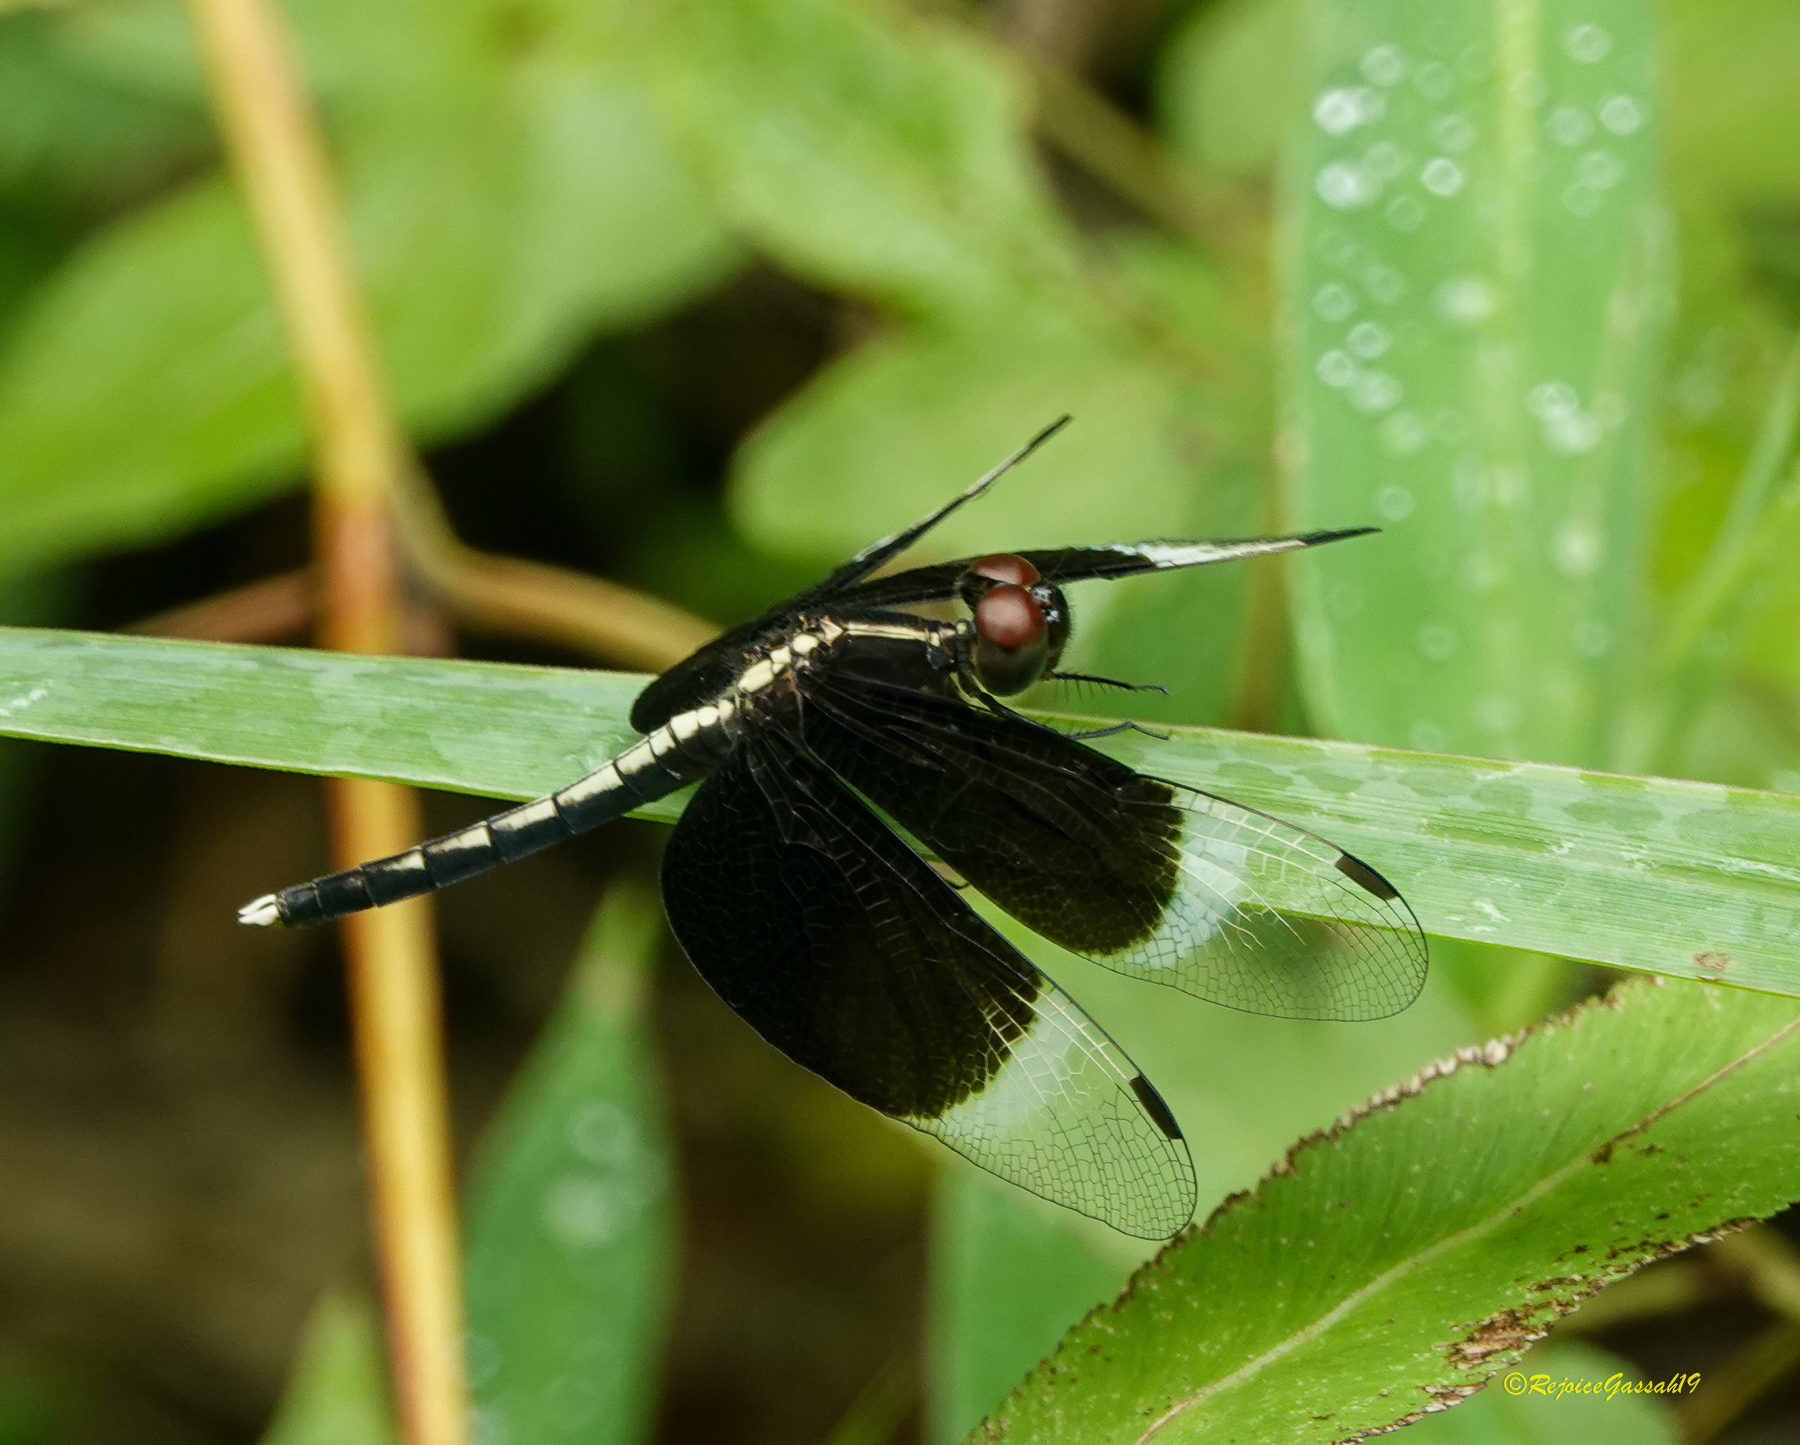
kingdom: Animalia
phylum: Arthropoda
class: Insecta
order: Odonata
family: Libellulidae
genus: Neurothemis
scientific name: Neurothemis tullia
